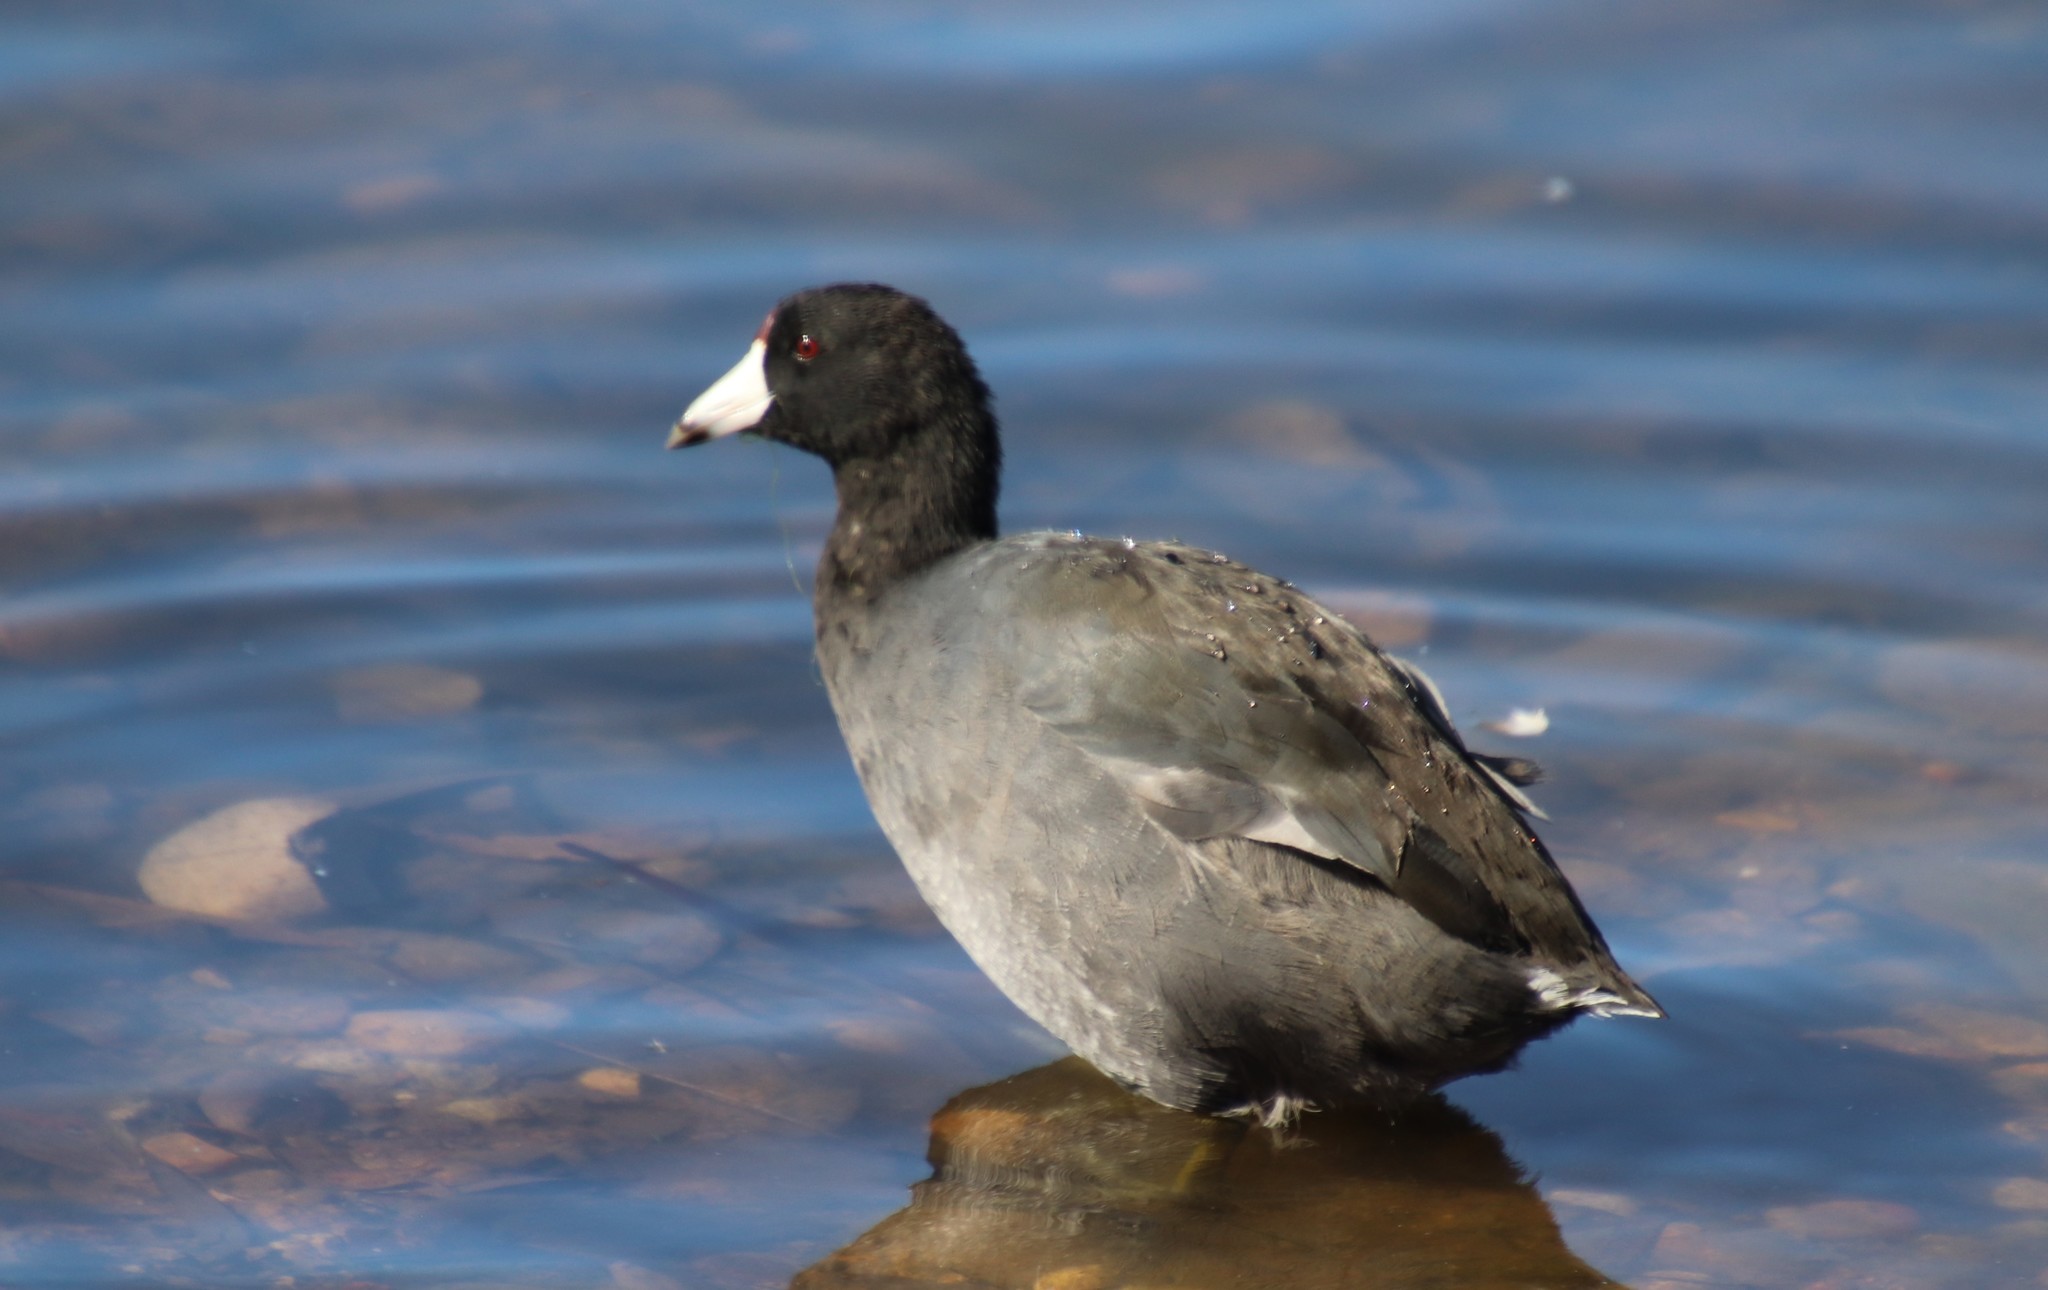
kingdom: Animalia
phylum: Chordata
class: Aves
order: Gruiformes
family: Rallidae
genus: Fulica
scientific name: Fulica americana
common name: American coot
